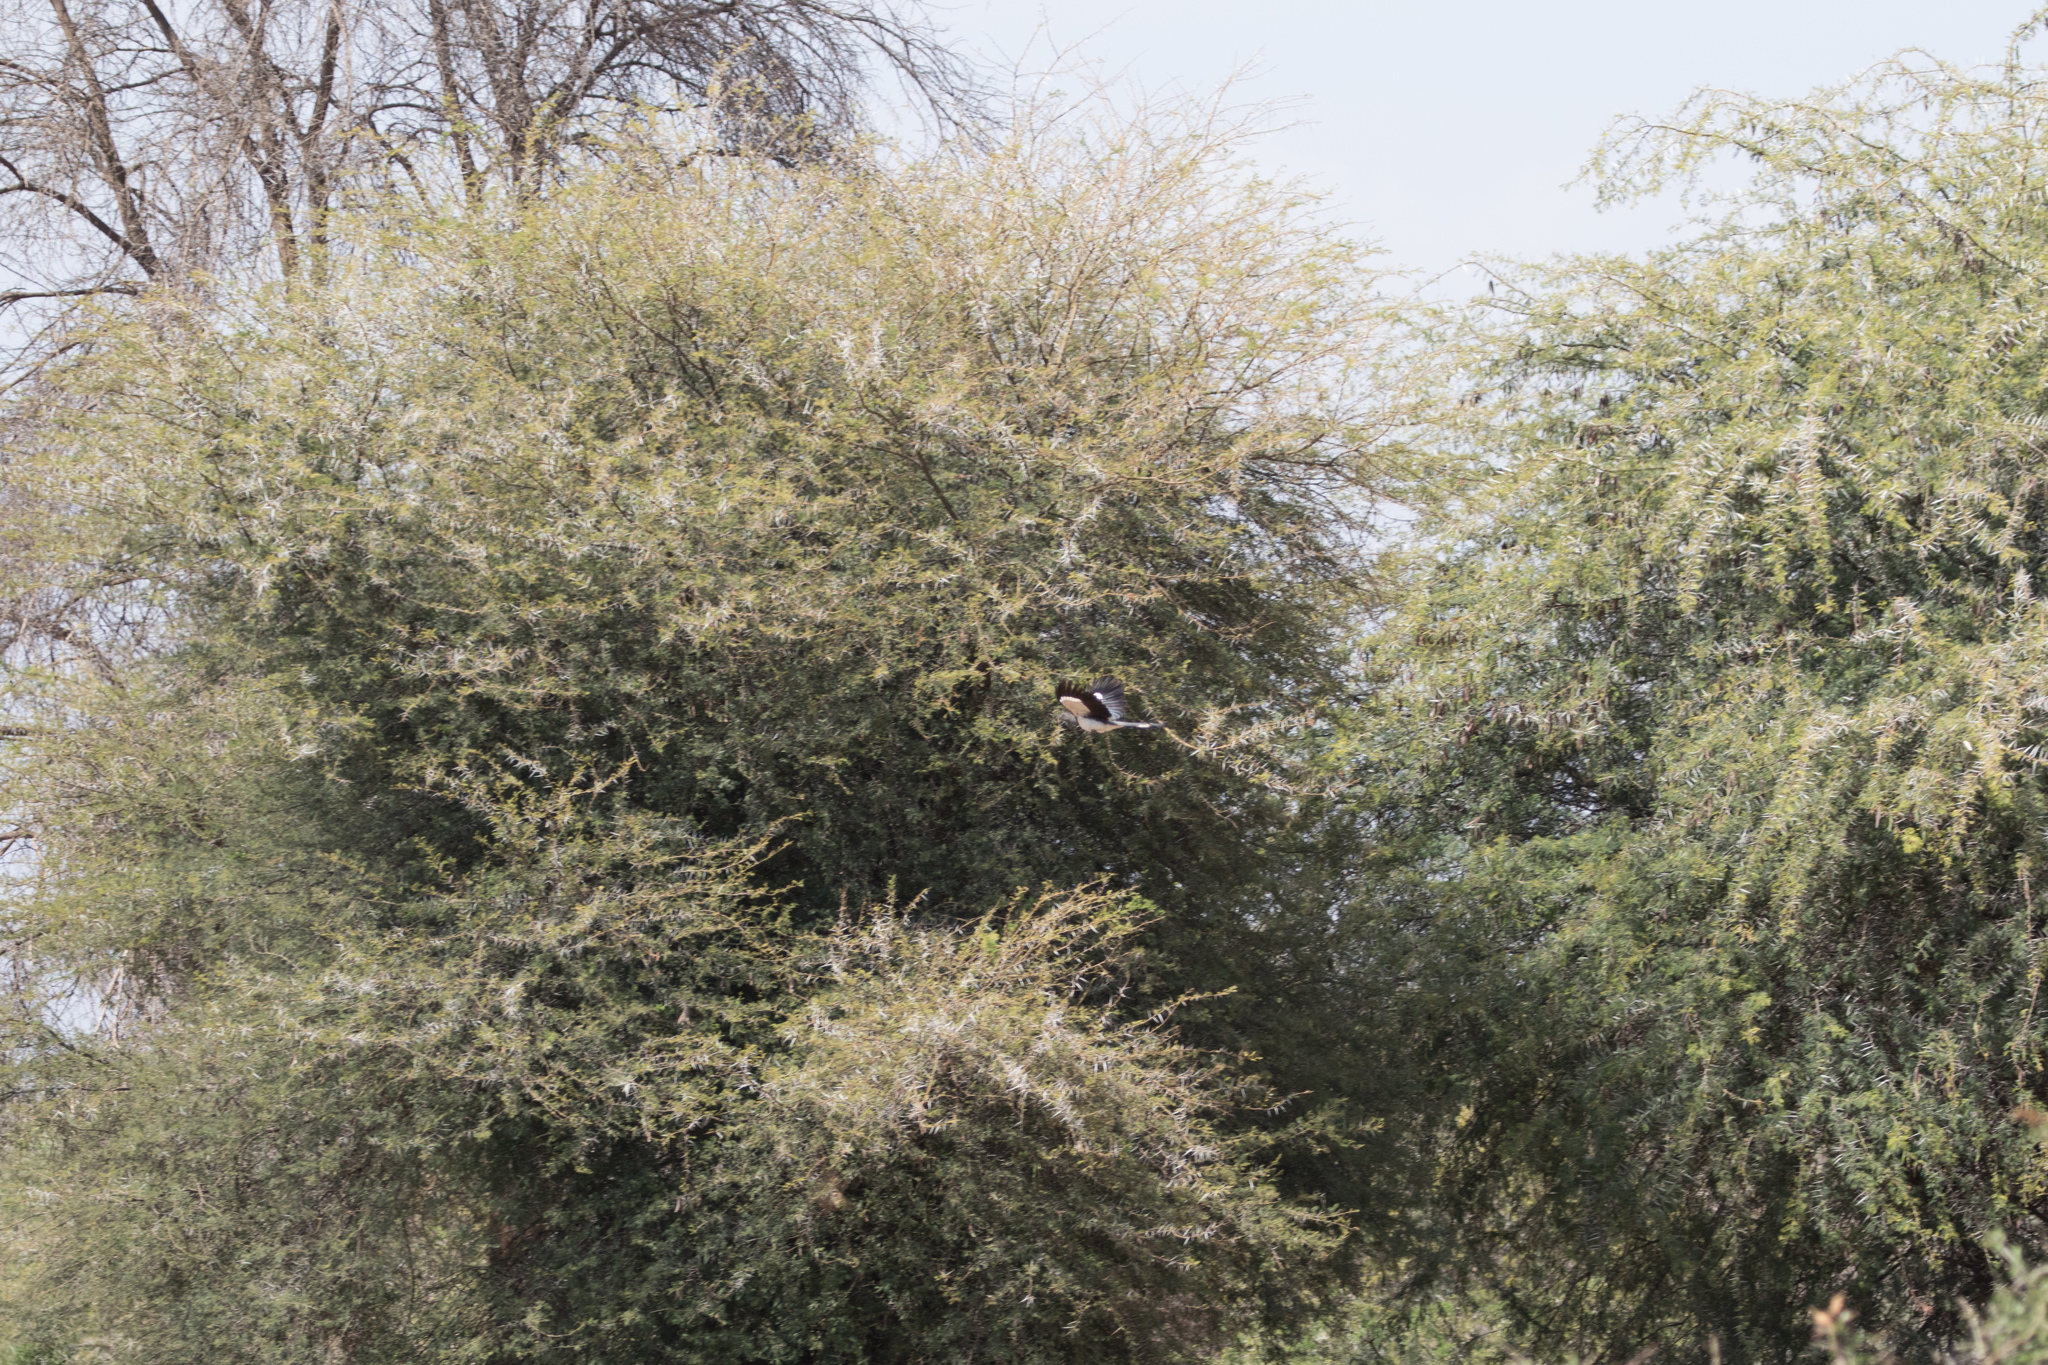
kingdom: Animalia
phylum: Chordata
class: Aves
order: Musophagiformes
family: Musophagidae
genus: Corythaixoides
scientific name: Corythaixoides leucogaster
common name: White-bellied go-away-bird
